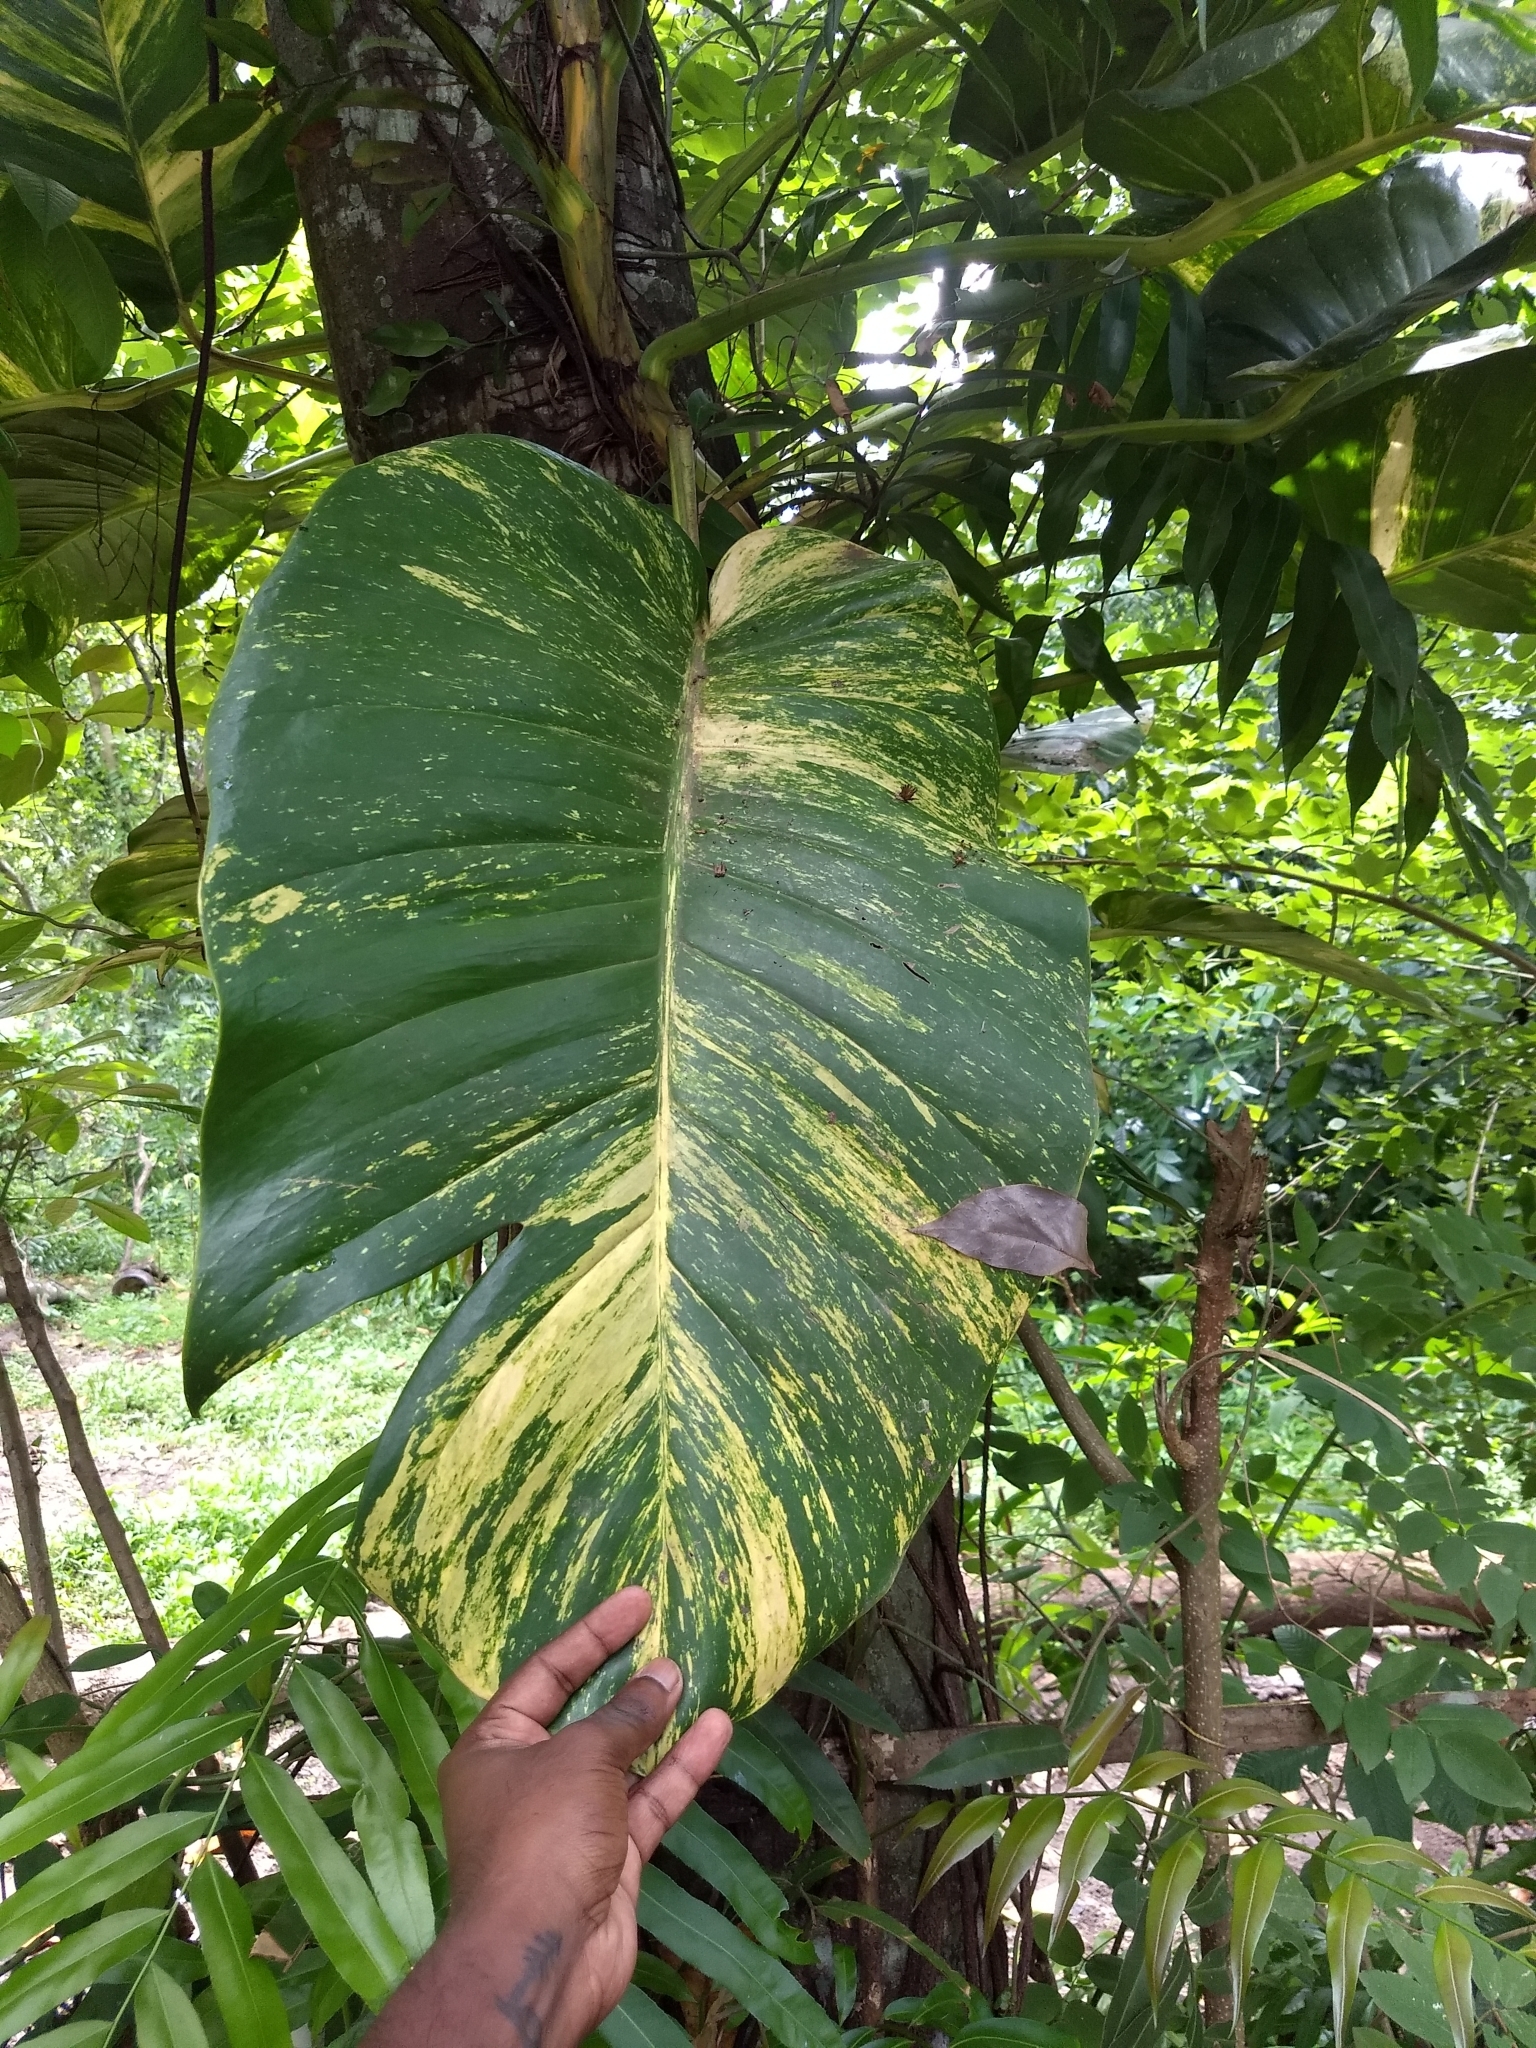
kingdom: Plantae
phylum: Tracheophyta
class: Liliopsida
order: Alismatales
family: Araceae
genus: Epipremnum
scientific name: Epipremnum aureum
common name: Golden hunter's-robe
